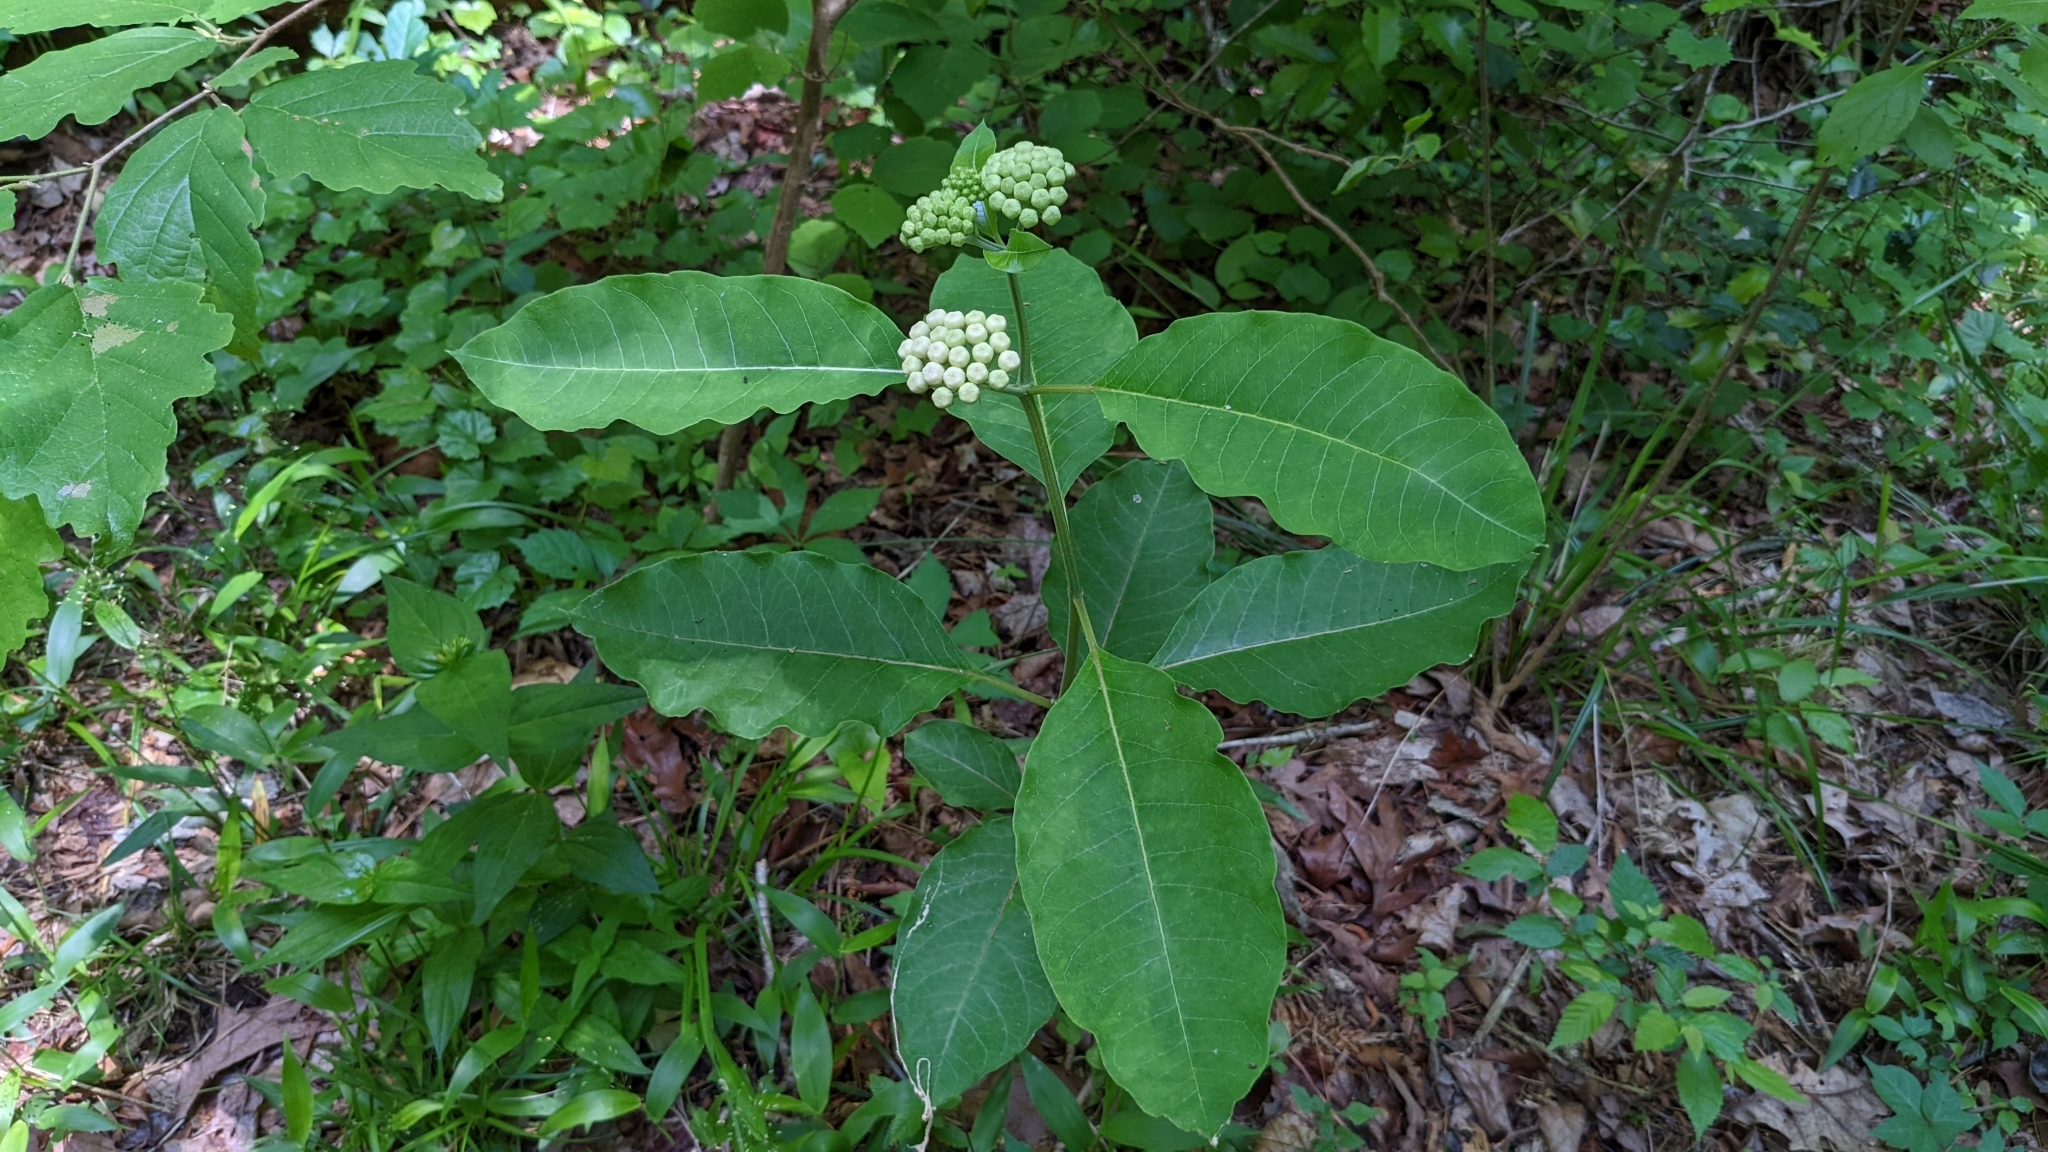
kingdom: Plantae
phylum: Tracheophyta
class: Magnoliopsida
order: Gentianales
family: Apocynaceae
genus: Asclepias
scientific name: Asclepias variegata
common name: Variegated milkweed
